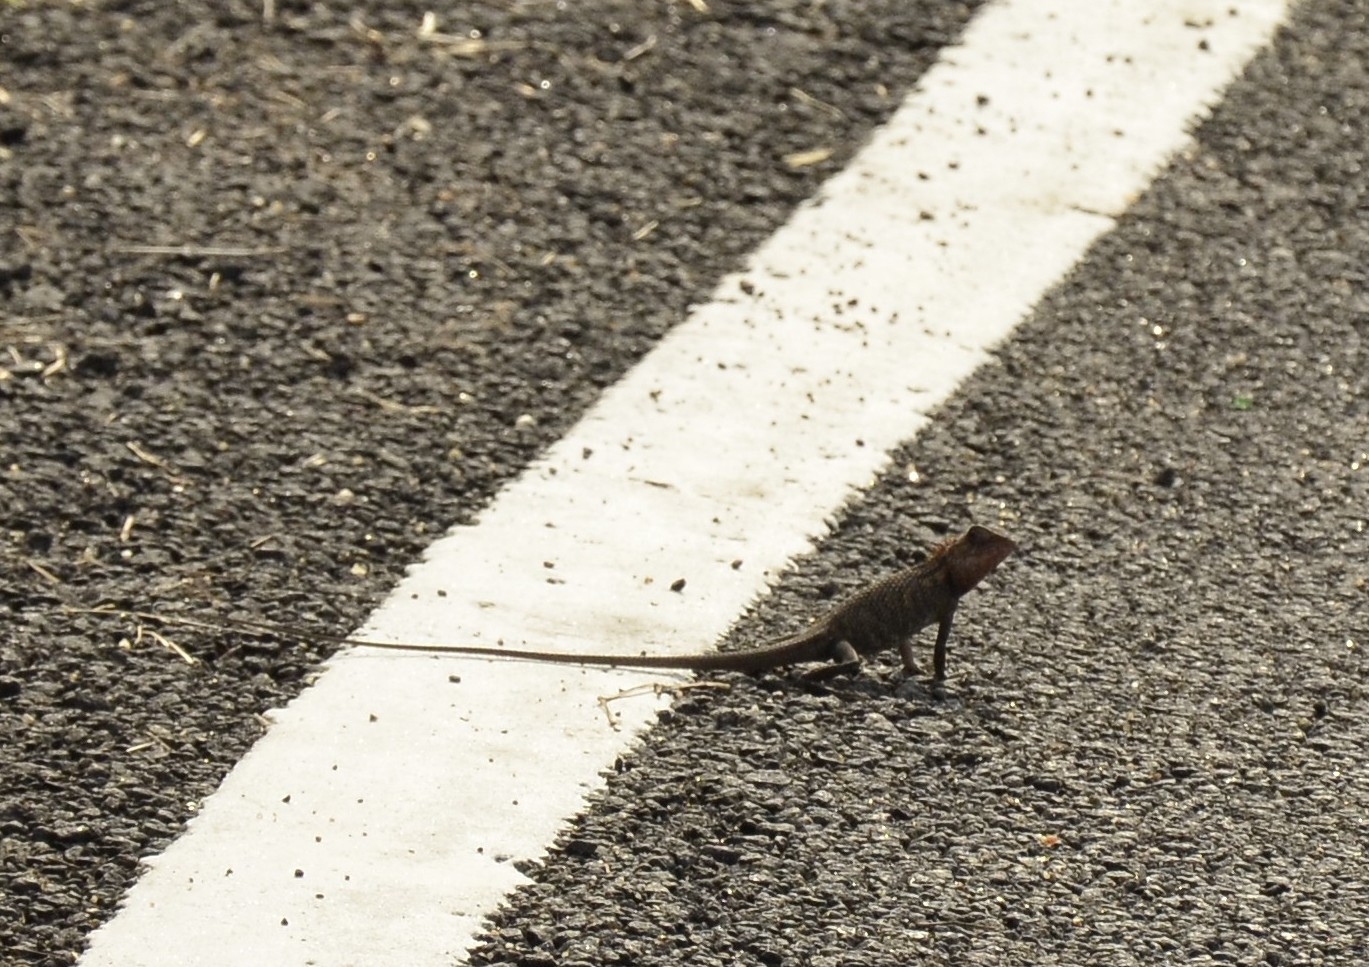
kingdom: Animalia
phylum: Chordata
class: Squamata
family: Agamidae
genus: Calotes
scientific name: Calotes versicolor
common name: Oriental garden lizard
